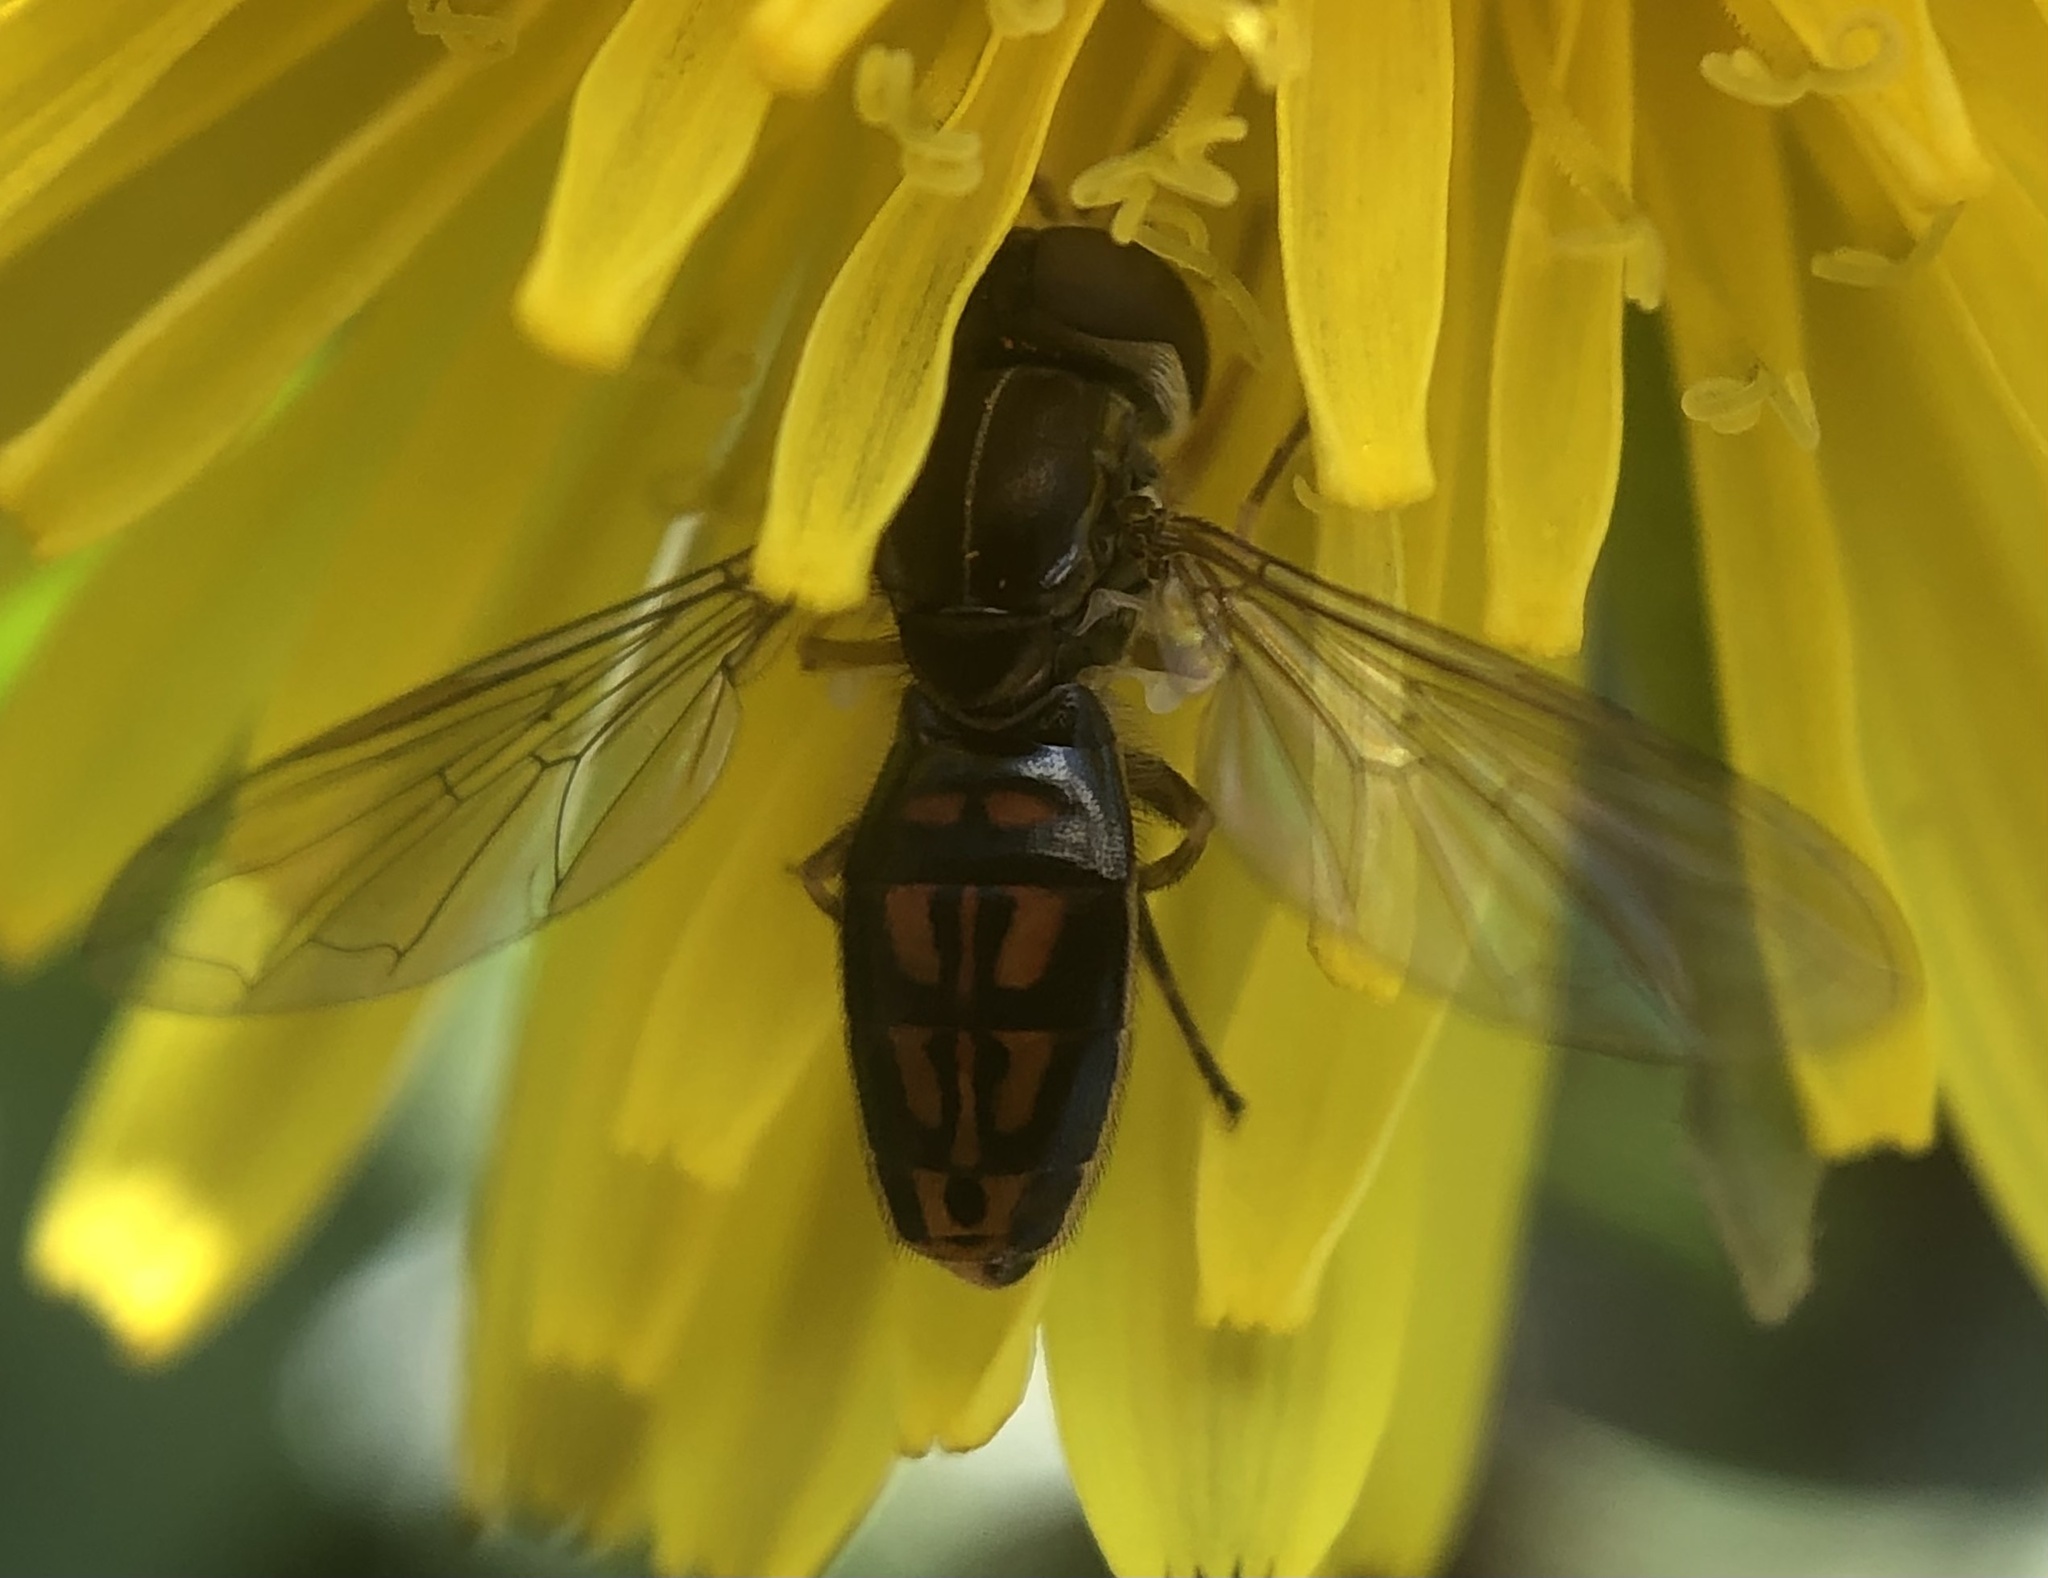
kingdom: Animalia
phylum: Arthropoda
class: Insecta
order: Diptera
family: Syrphidae
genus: Toxomerus
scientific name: Toxomerus marginatus
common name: Syrphid fly
